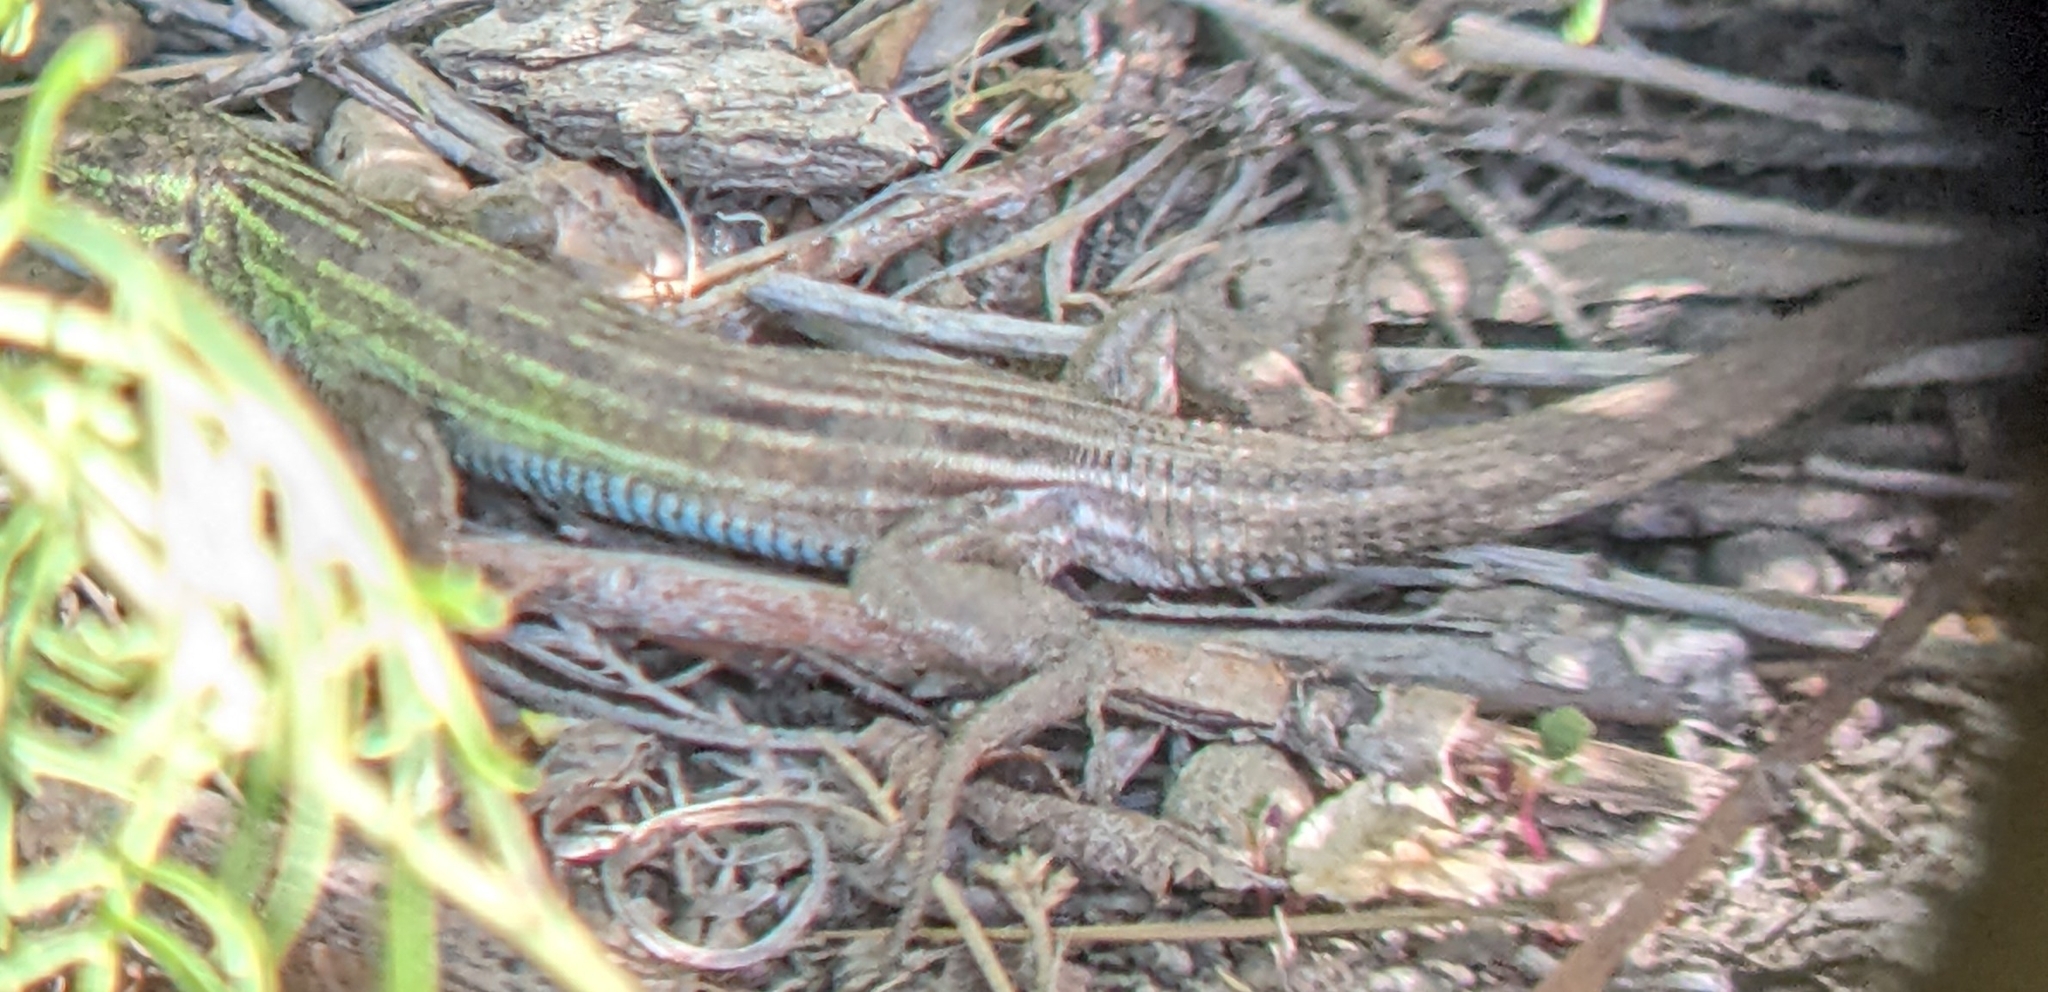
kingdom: Animalia
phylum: Chordata
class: Squamata
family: Teiidae
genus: Aspidoscelis
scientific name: Aspidoscelis sexlineatus
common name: Six-lined racerunner
